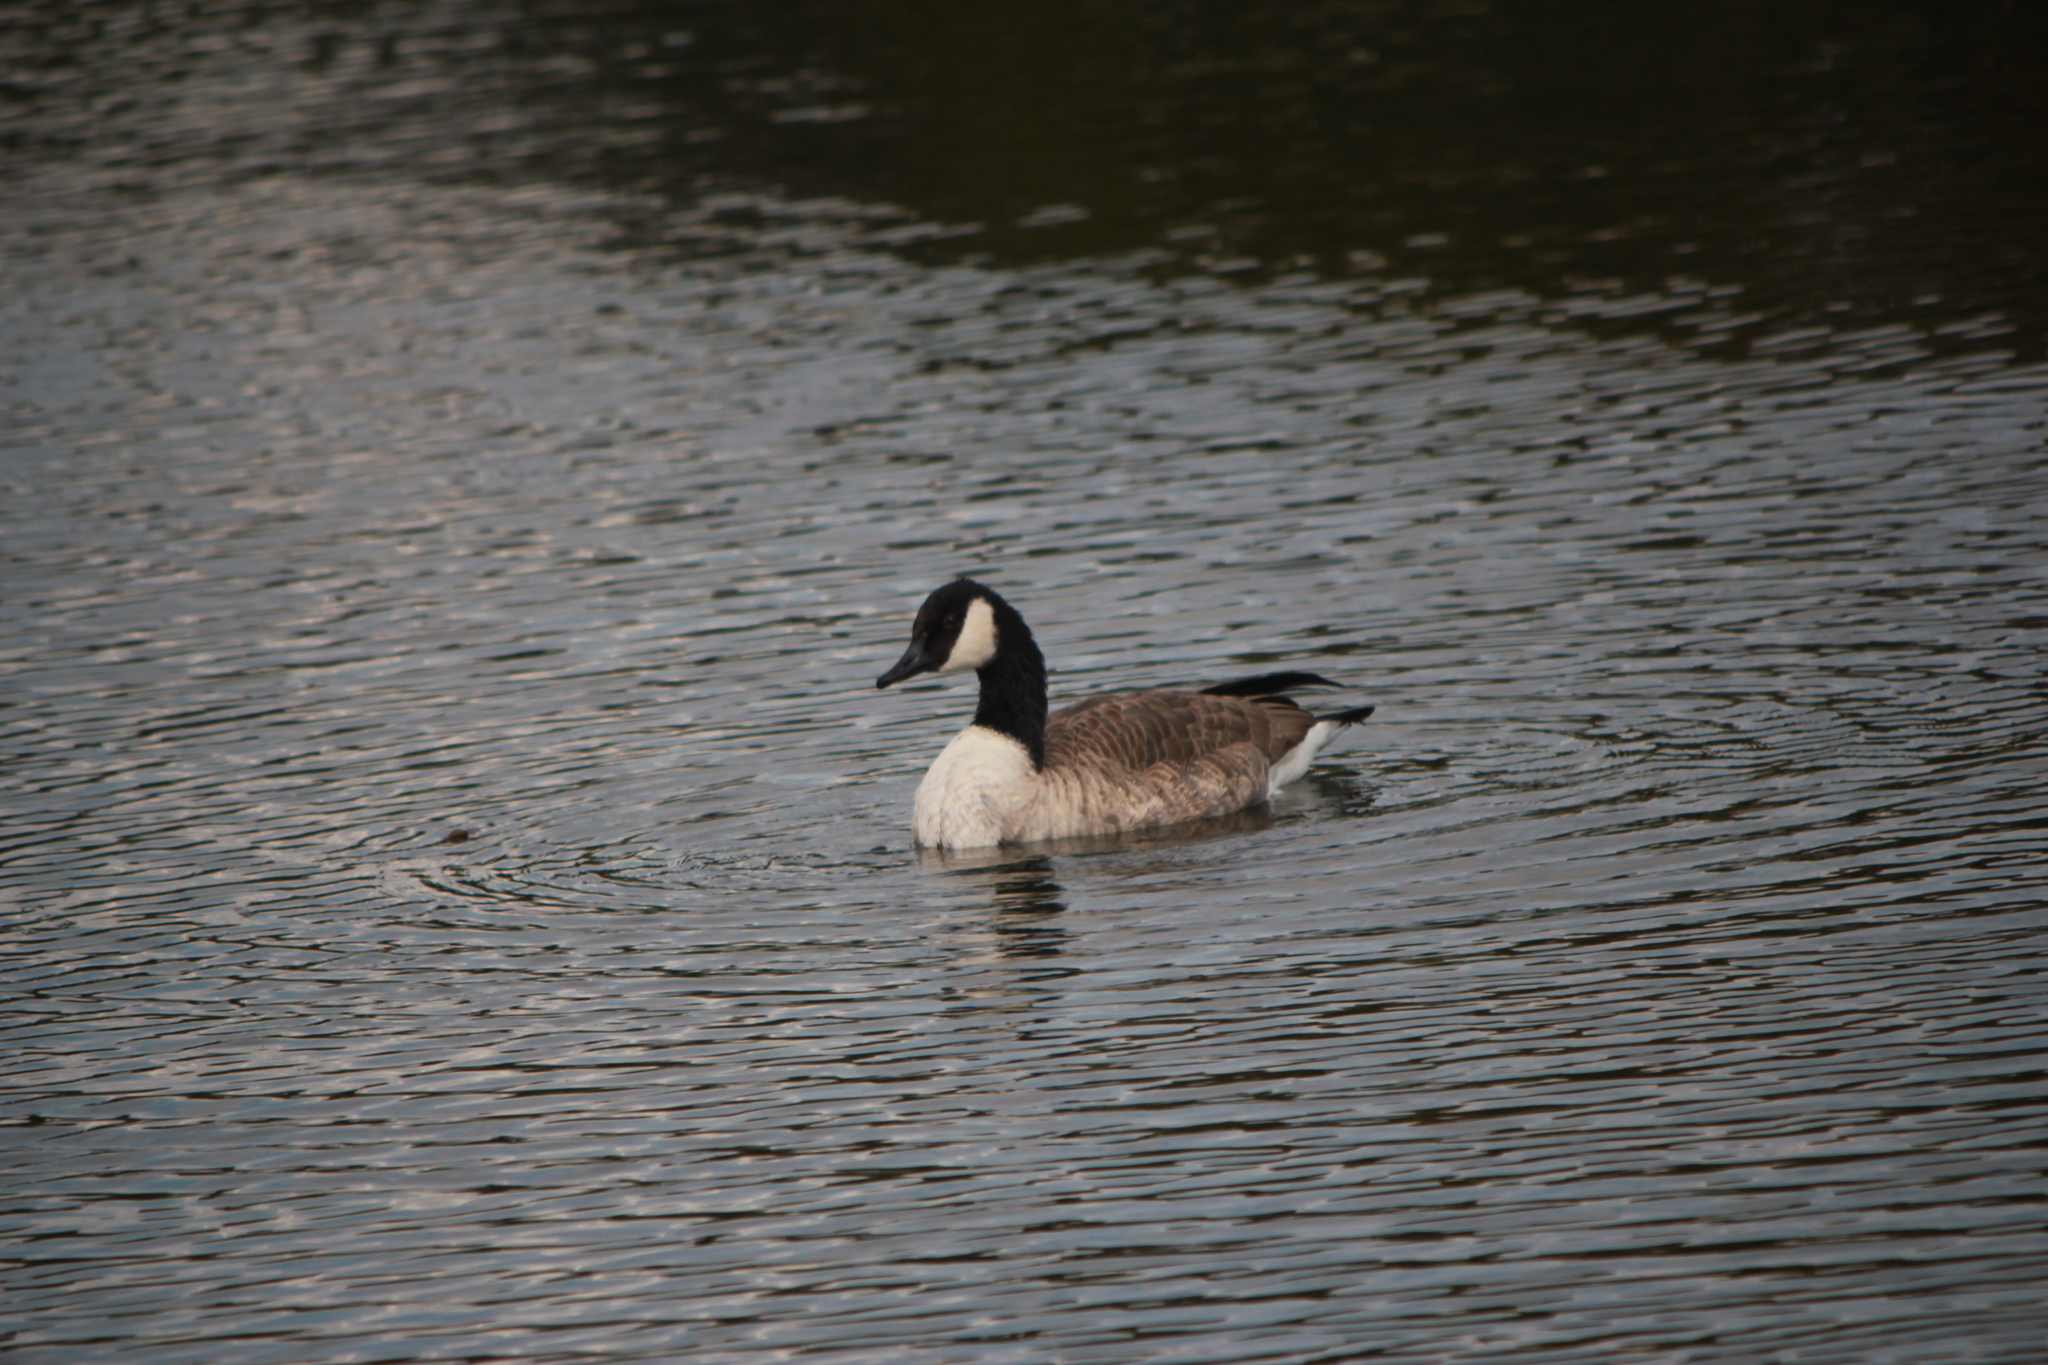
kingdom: Animalia
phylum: Chordata
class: Aves
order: Anseriformes
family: Anatidae
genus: Branta
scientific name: Branta canadensis
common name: Canada goose
